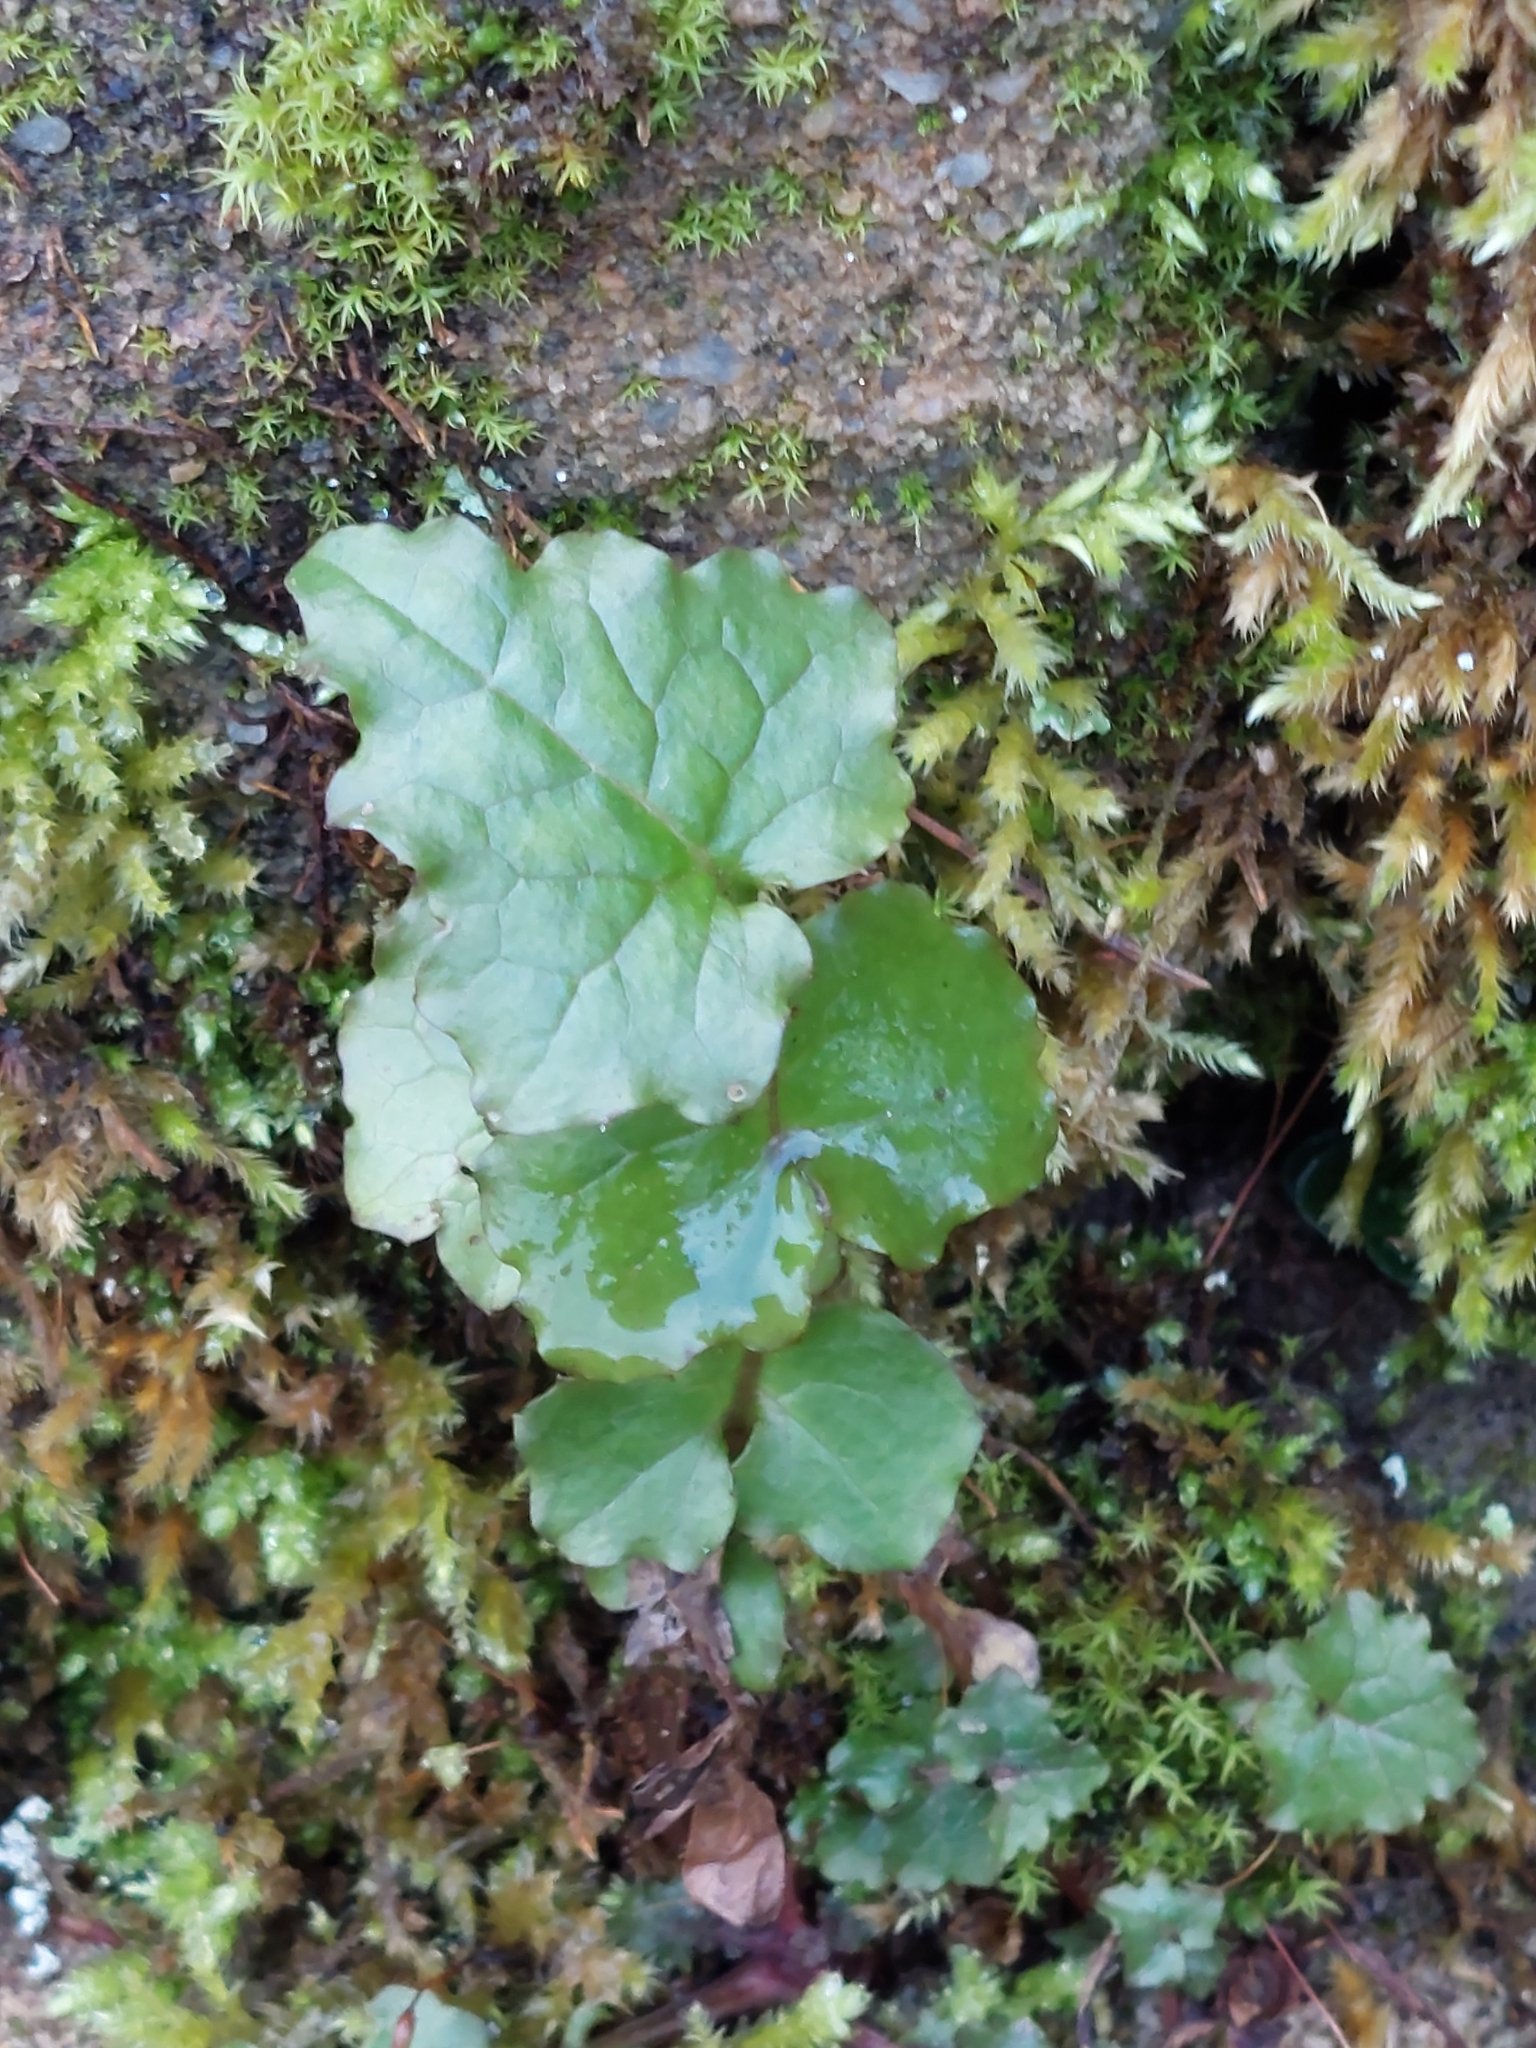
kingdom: Plantae
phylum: Tracheophyta
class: Magnoliopsida
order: Asterales
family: Asteraceae
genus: Mycelis
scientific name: Mycelis muralis
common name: Wall lettuce
